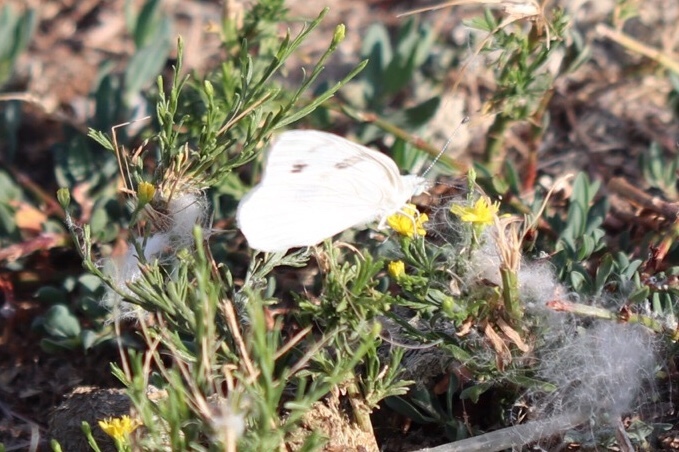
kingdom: Animalia
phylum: Arthropoda
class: Insecta
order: Lepidoptera
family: Pieridae
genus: Pontia
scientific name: Pontia protodice
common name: Checkered white
